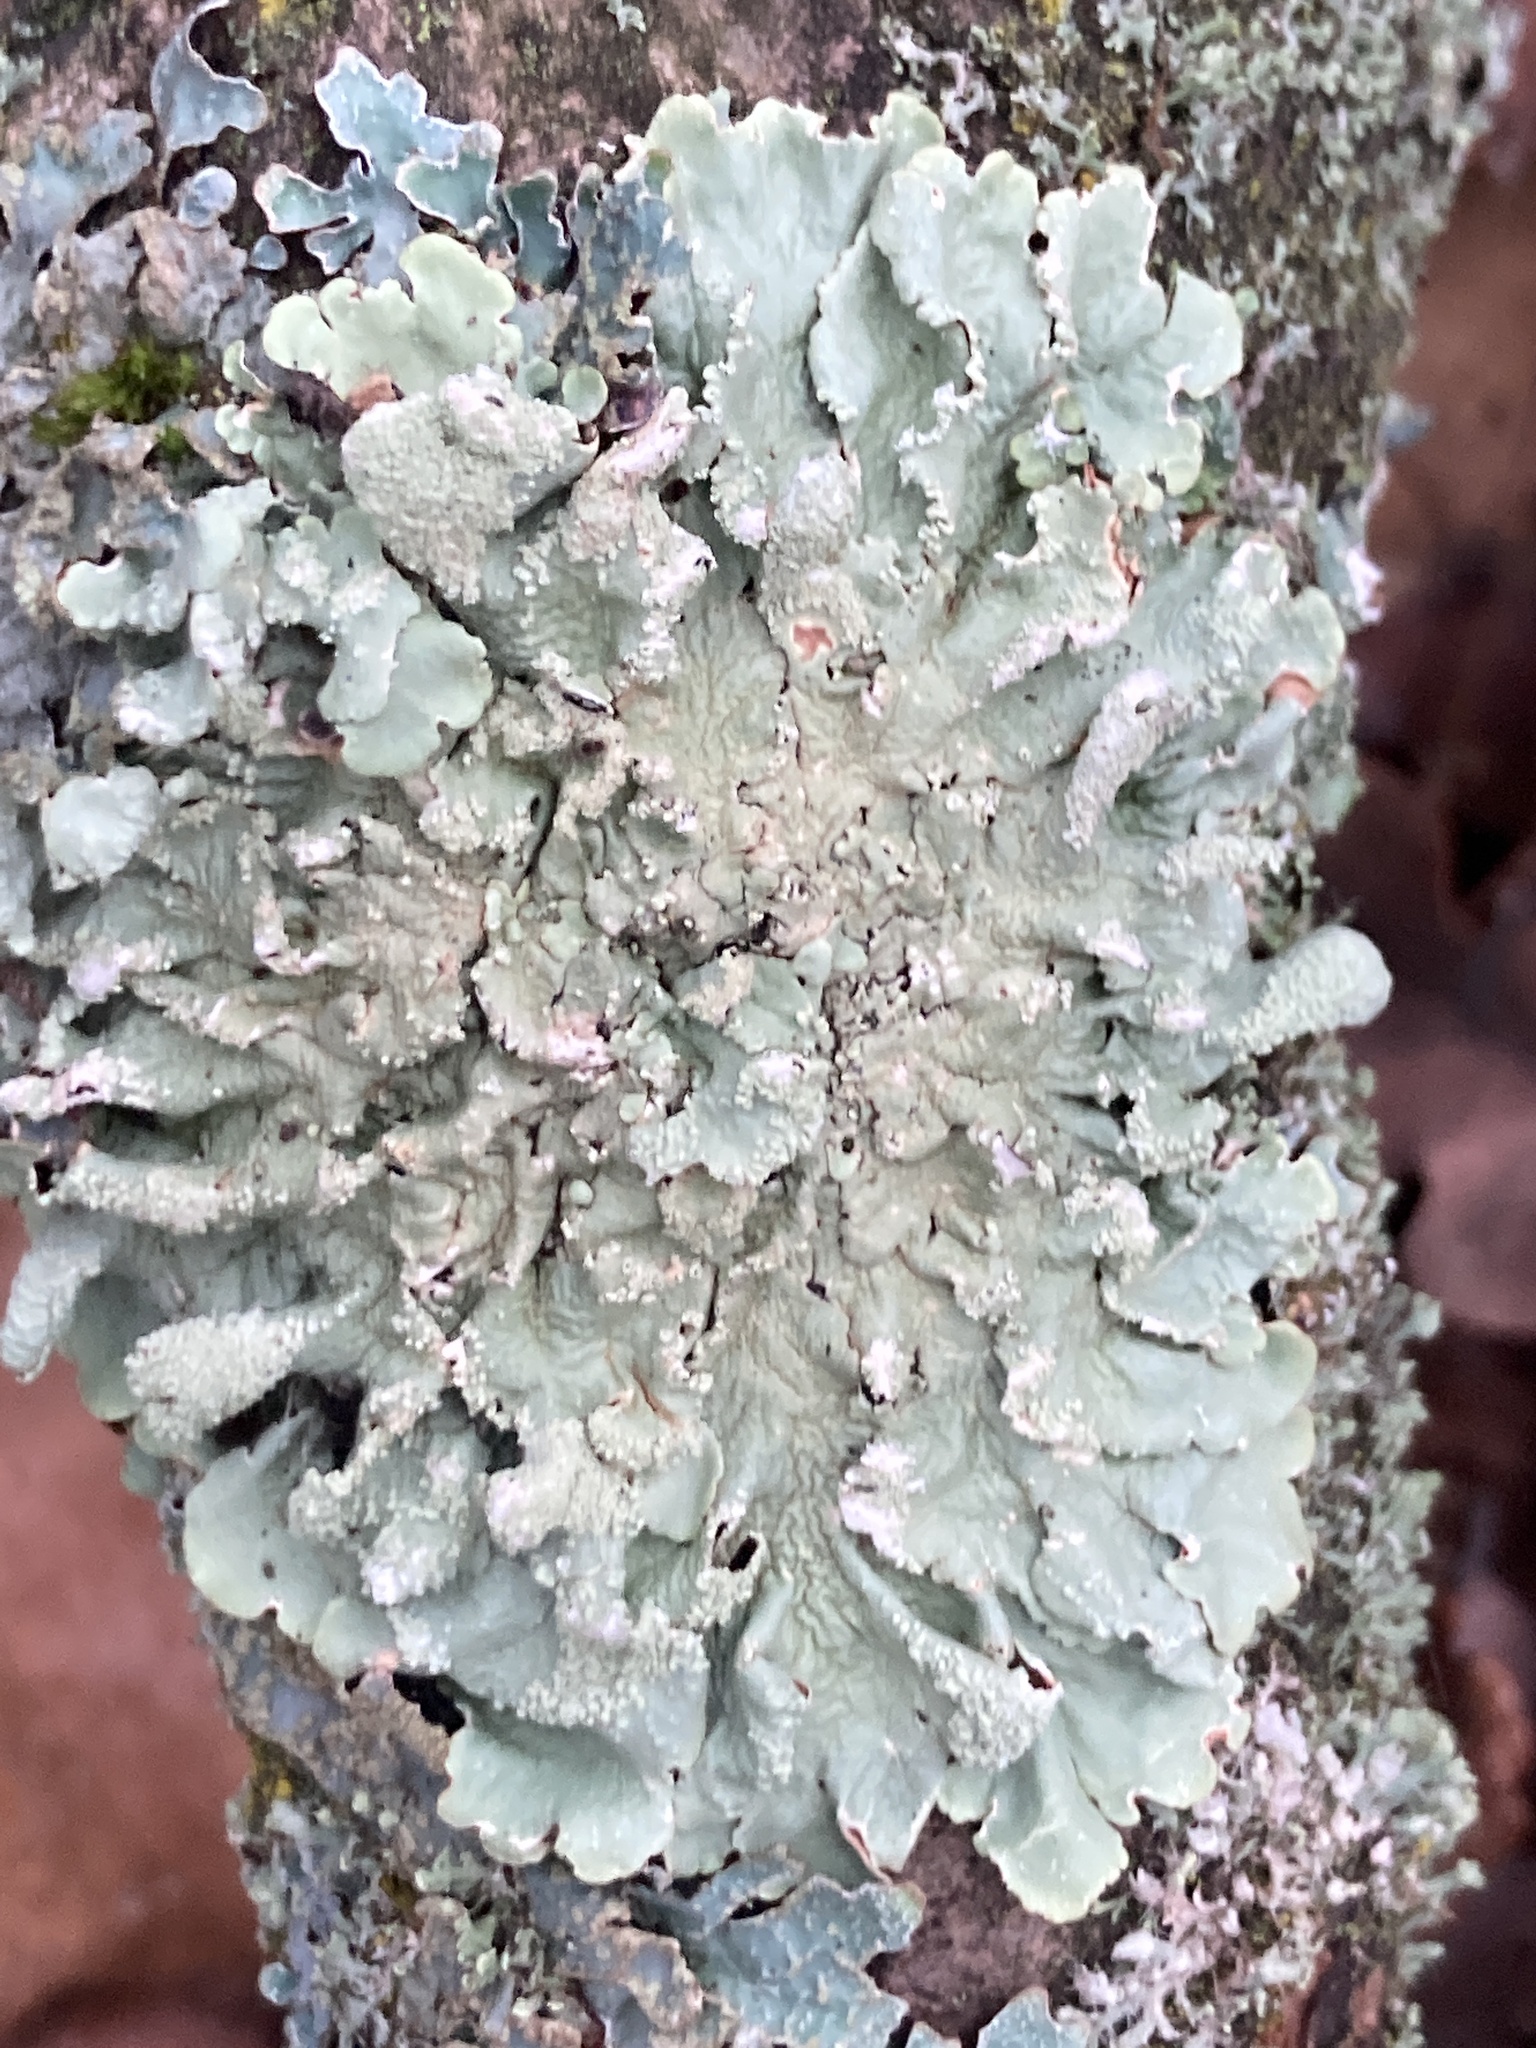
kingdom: Fungi
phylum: Ascomycota
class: Lecanoromycetes
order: Lecanorales
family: Parmeliaceae
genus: Flavoparmelia
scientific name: Flavoparmelia caperata
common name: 40-mile per hour lichen
